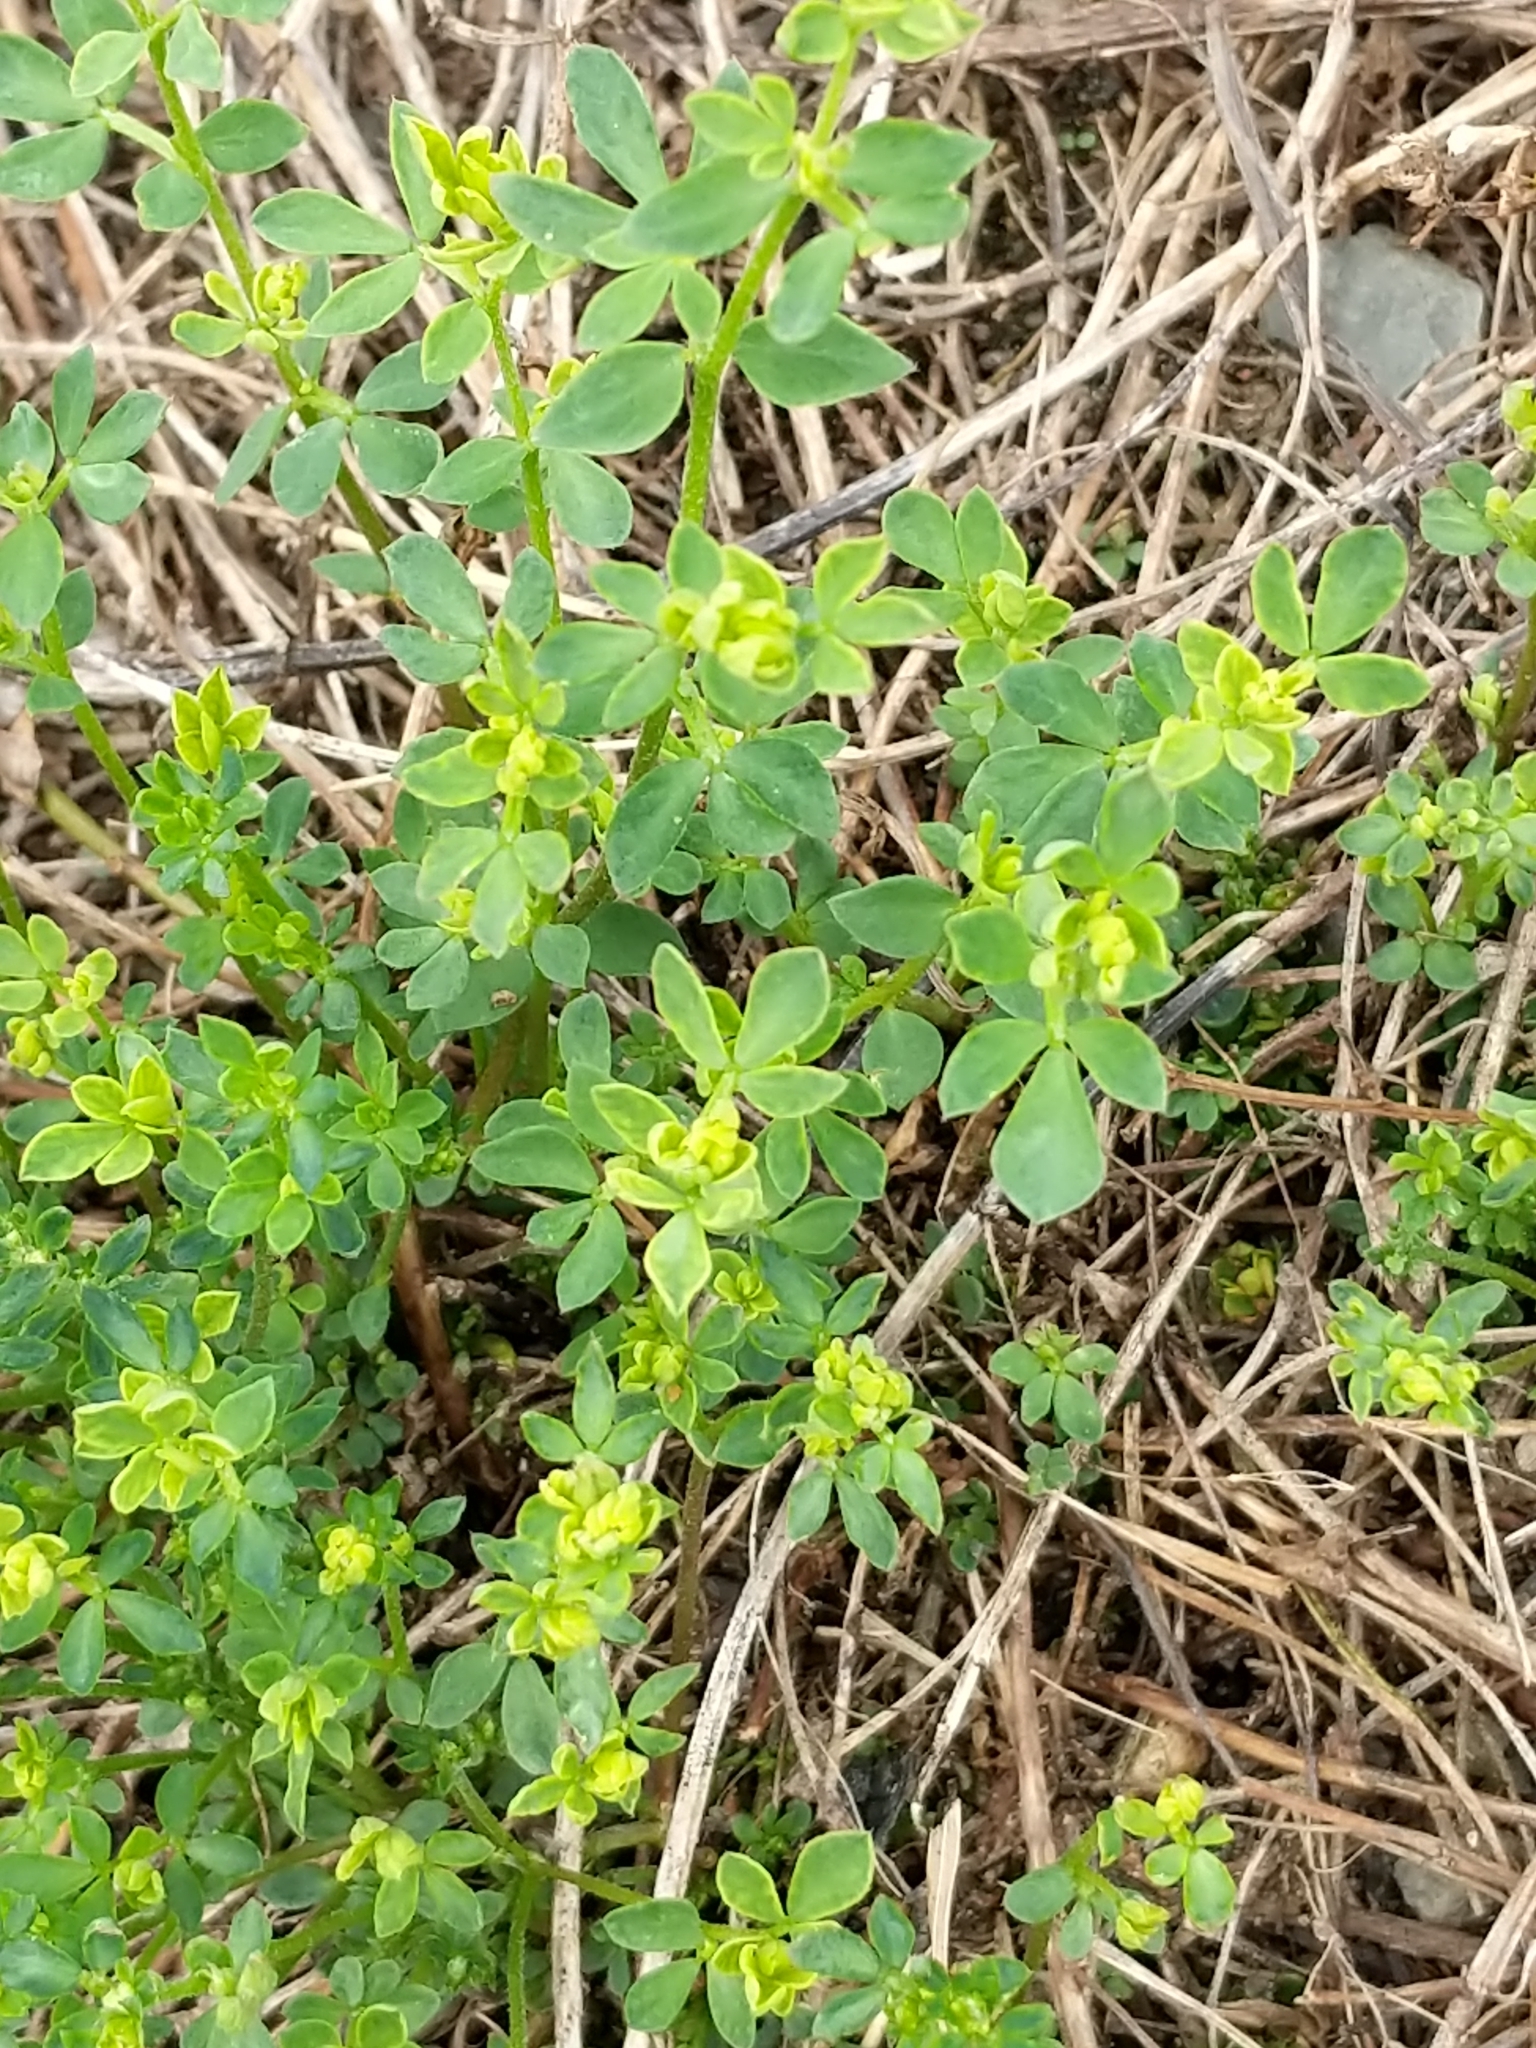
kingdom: Plantae
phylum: Tracheophyta
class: Magnoliopsida
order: Fabales
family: Fabaceae
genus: Lotus
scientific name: Lotus corniculatus
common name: Common bird's-foot-trefoil
